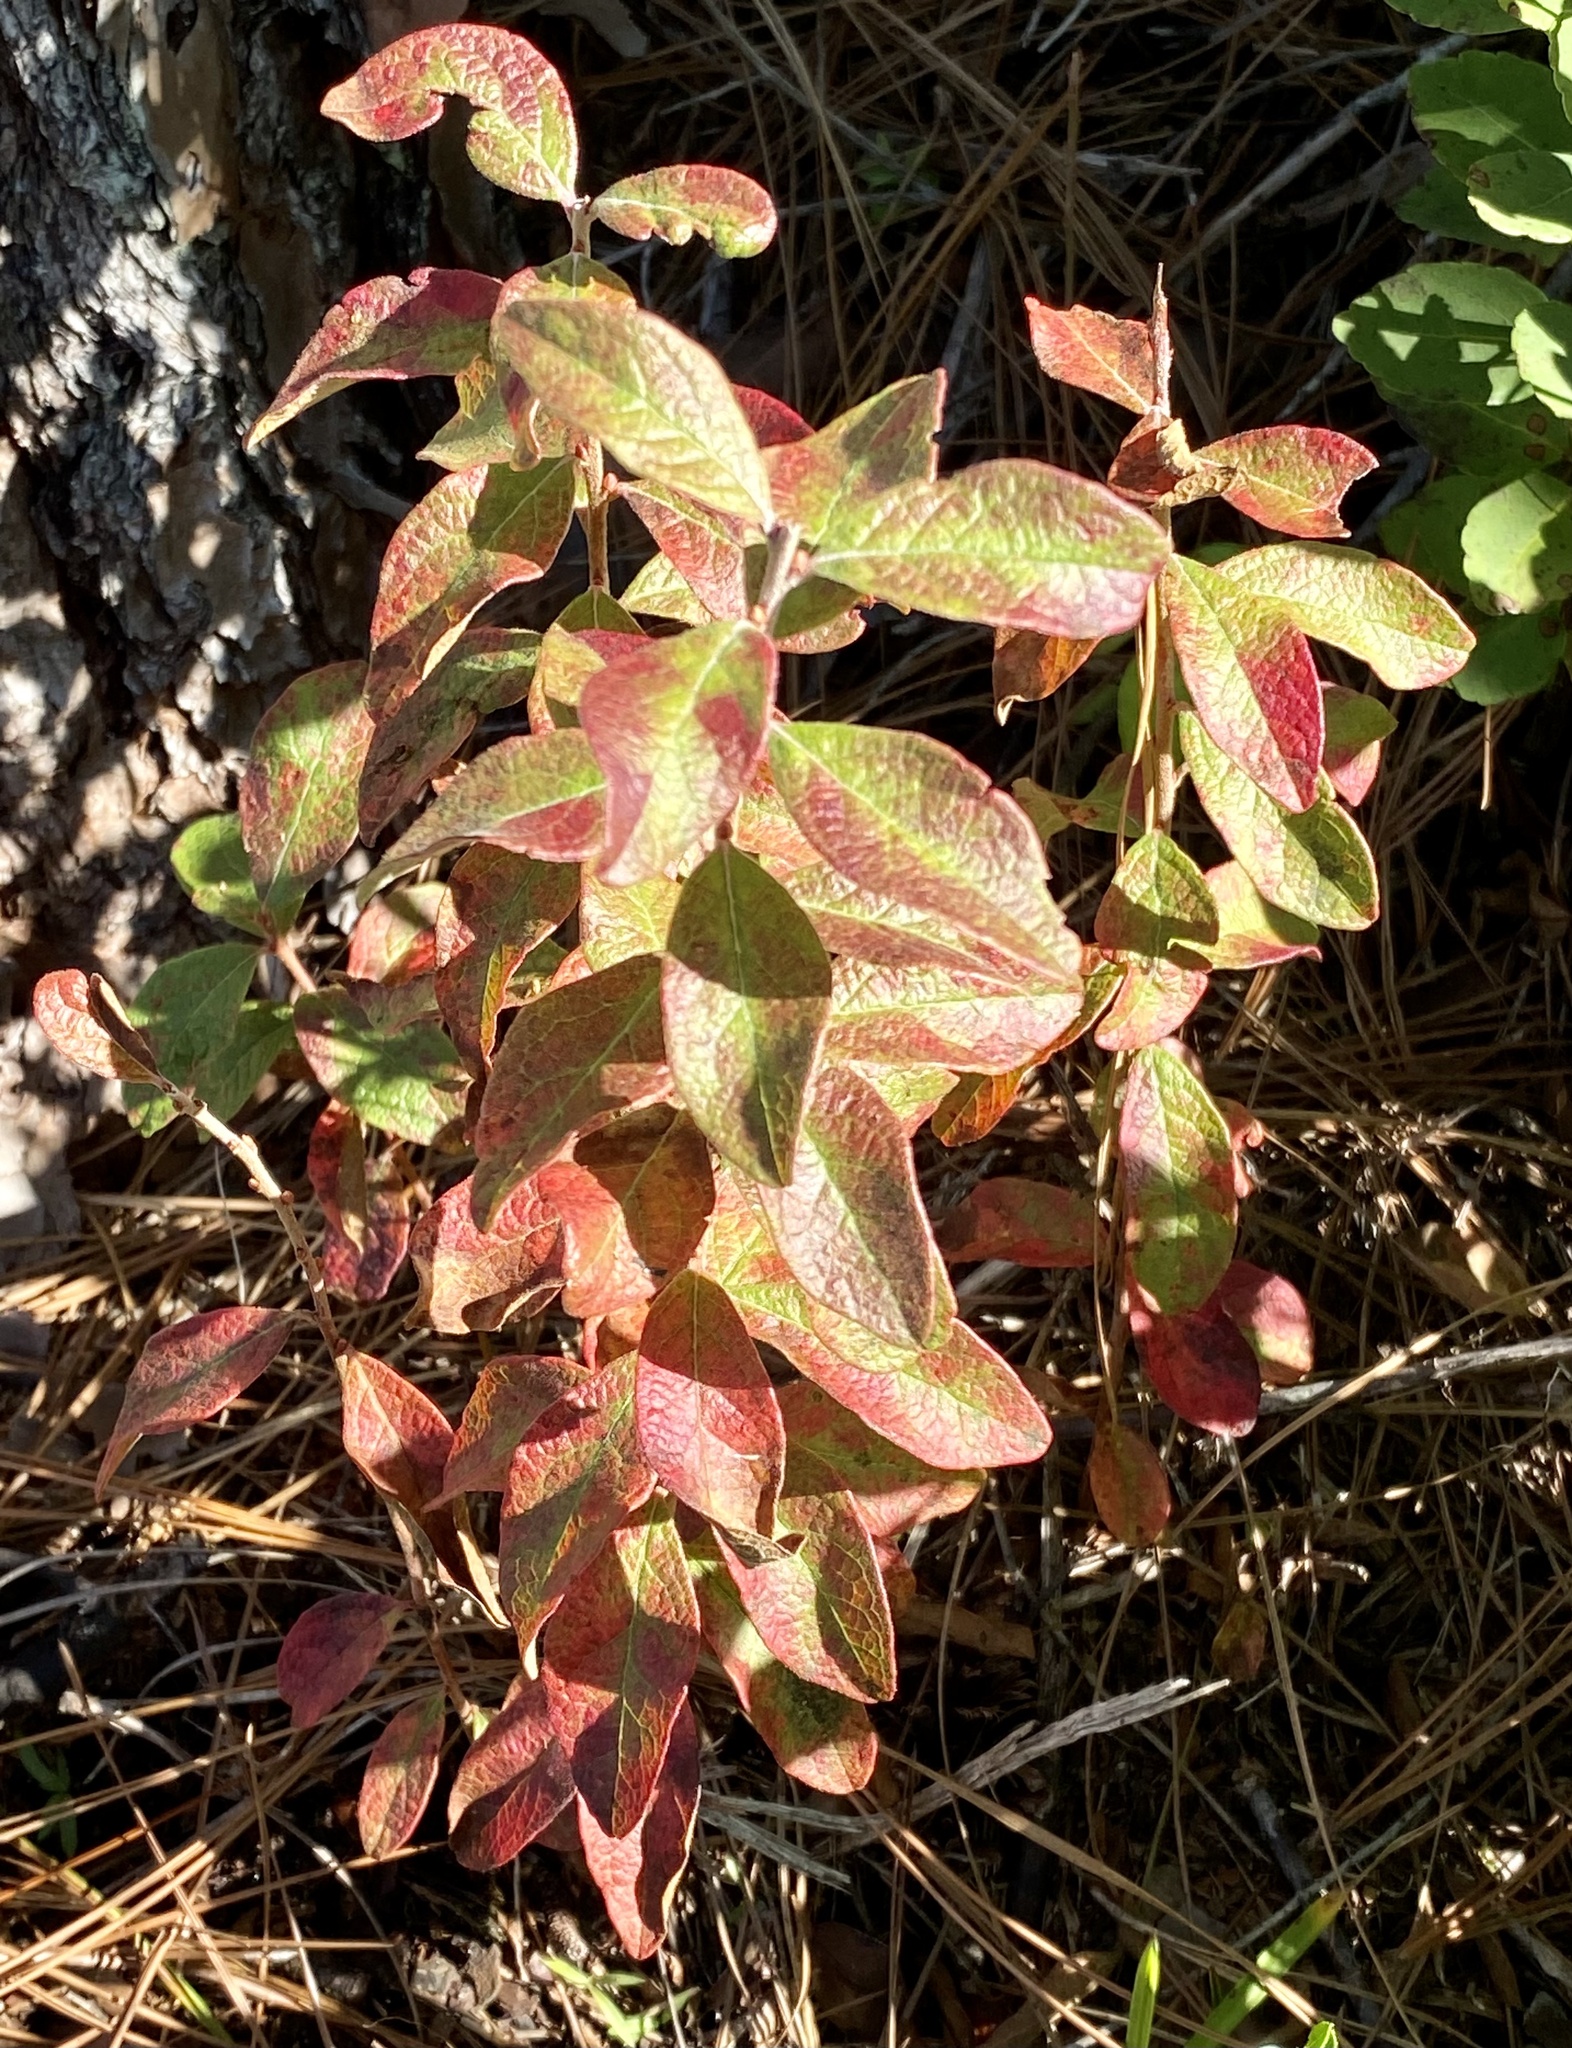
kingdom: Plantae
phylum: Tracheophyta
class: Magnoliopsida
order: Ericales
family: Ericaceae
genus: Gaylussacia
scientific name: Gaylussacia tomentosa
